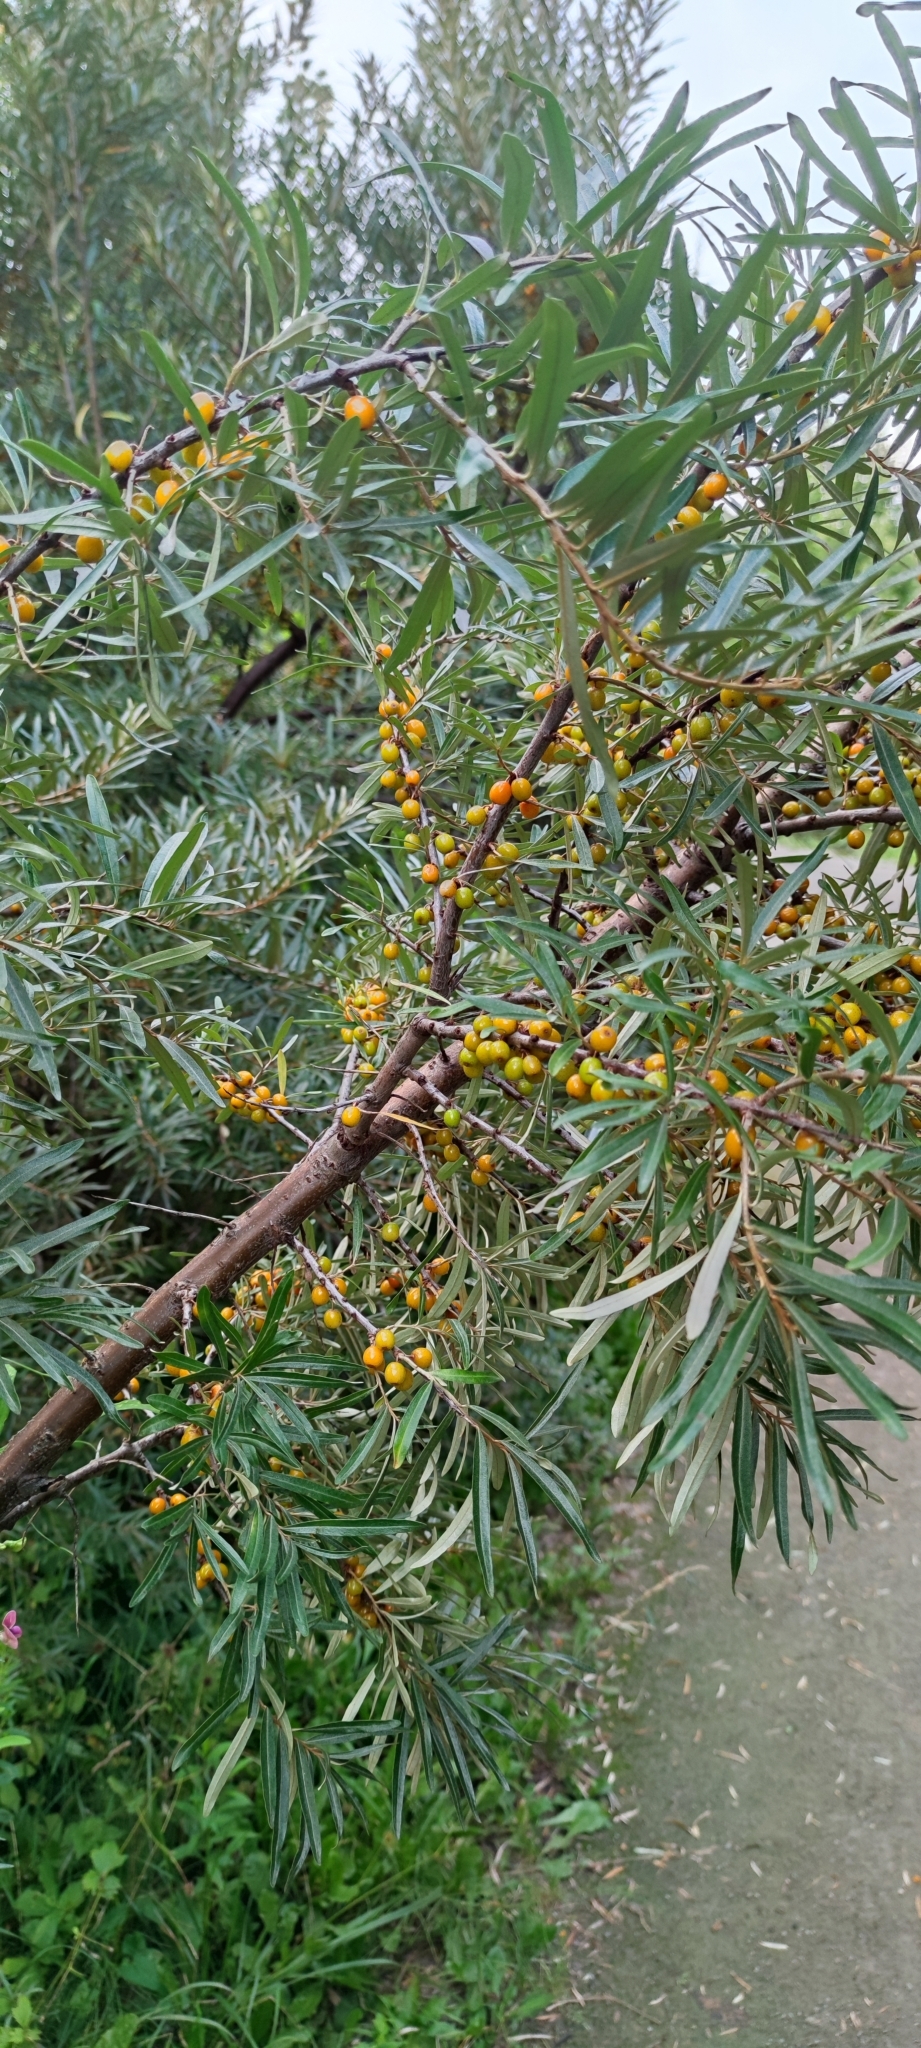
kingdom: Plantae
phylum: Tracheophyta
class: Magnoliopsida
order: Rosales
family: Elaeagnaceae
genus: Hippophae
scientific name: Hippophae rhamnoides
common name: Sea-buckthorn
